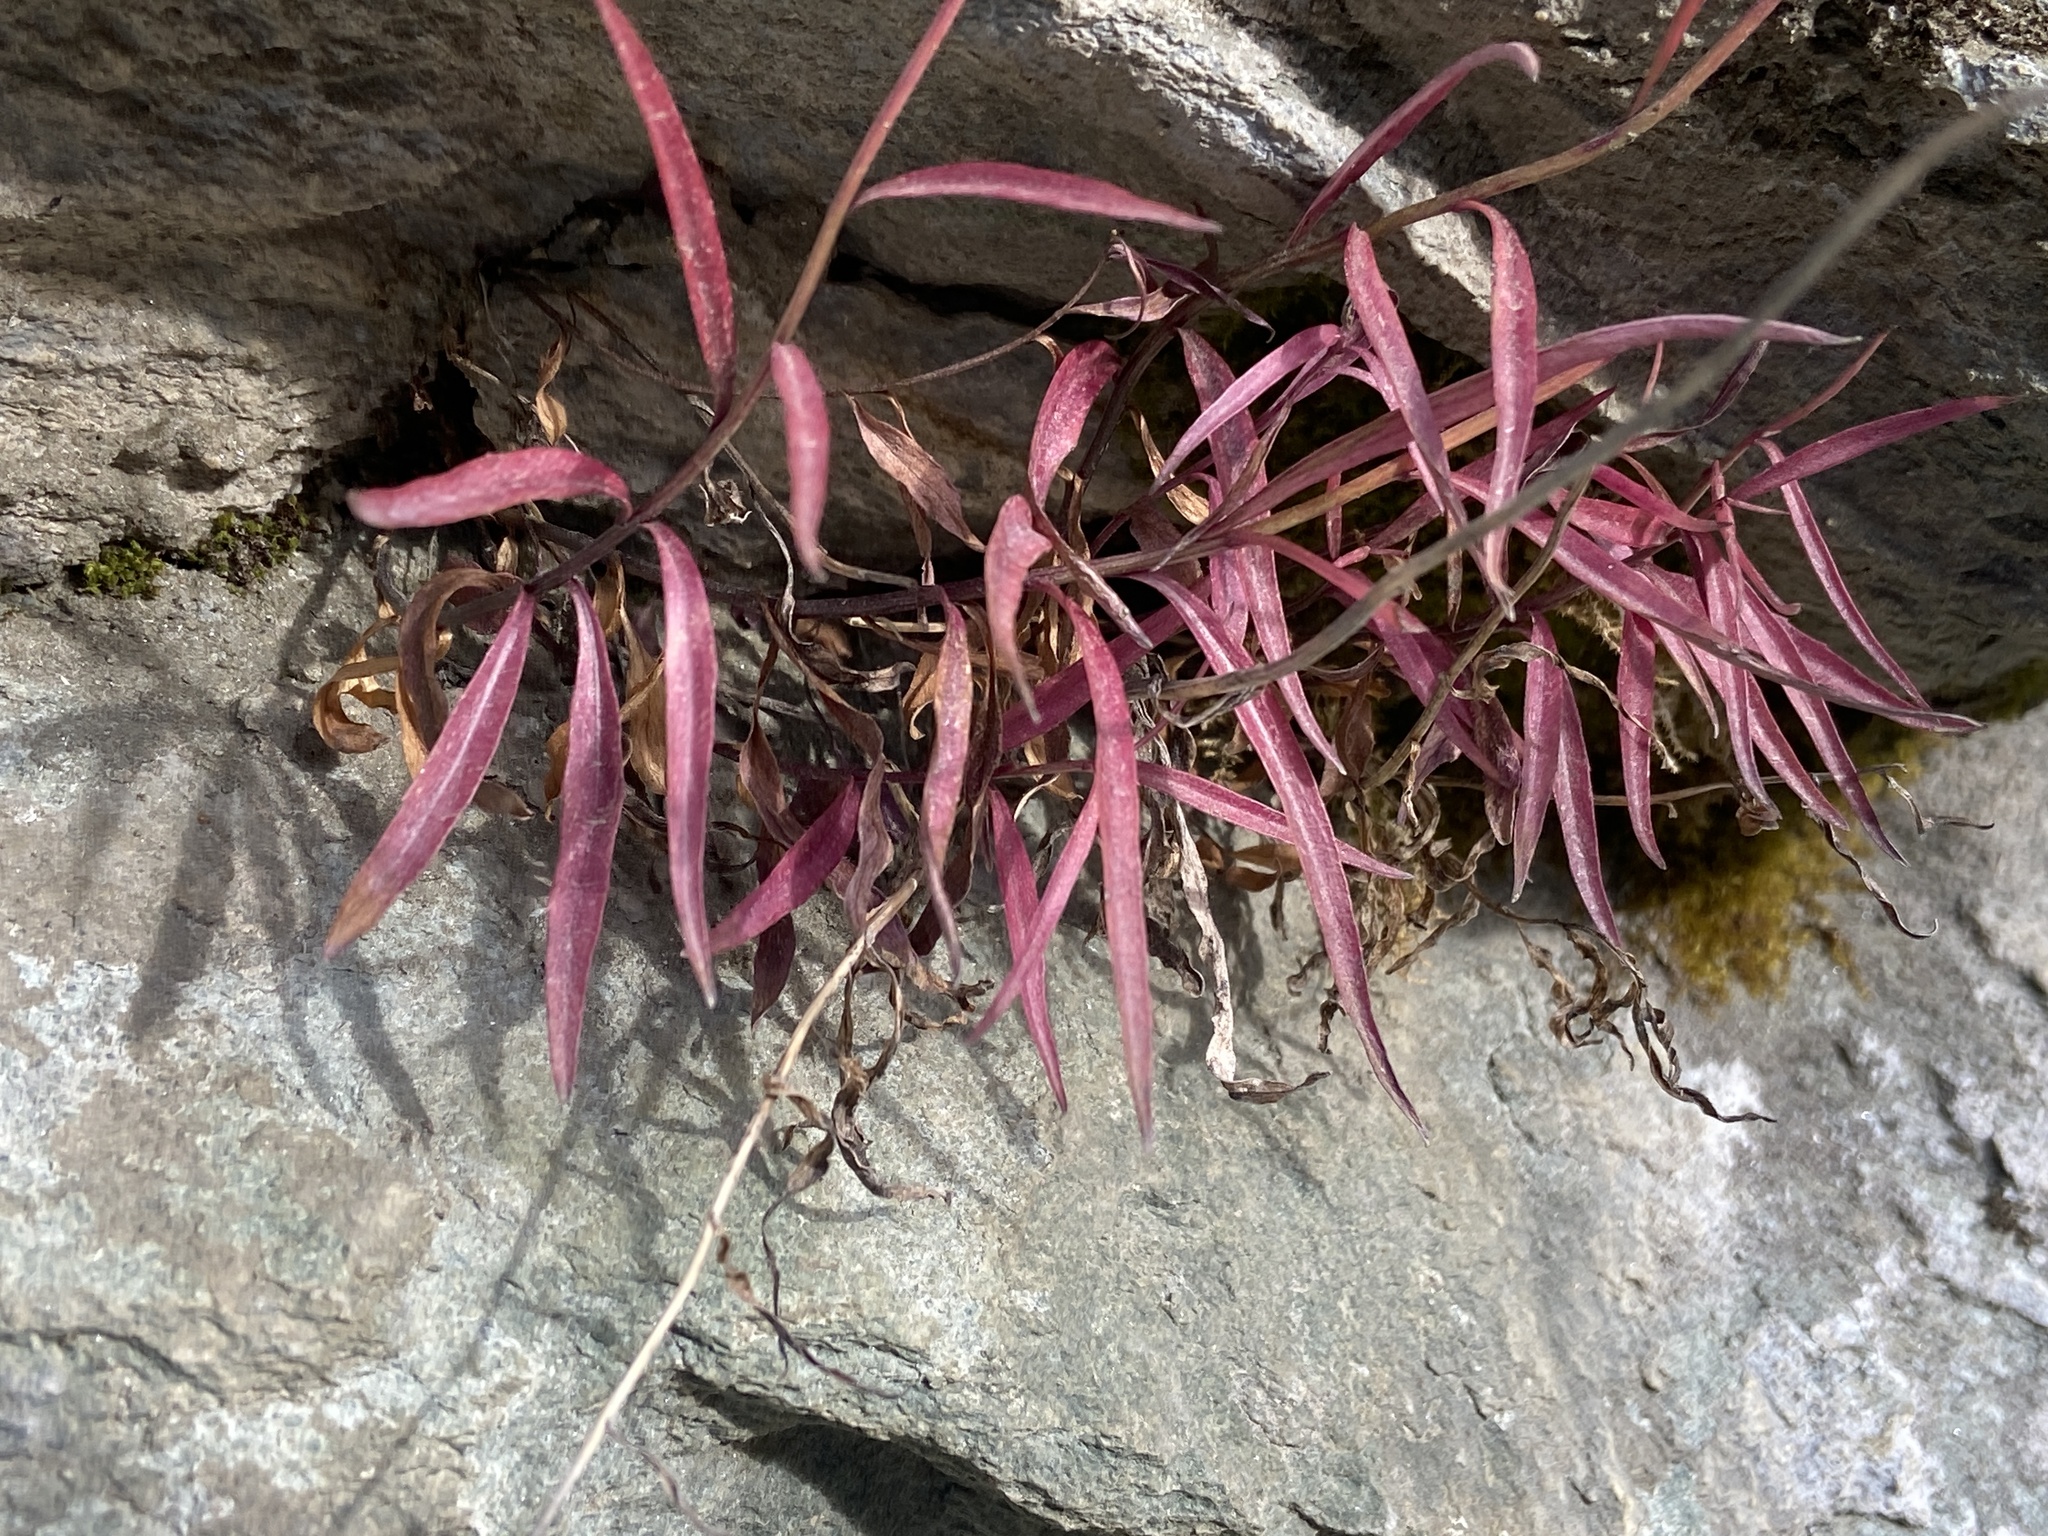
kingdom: Plantae
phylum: Tracheophyta
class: Magnoliopsida
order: Myrtales
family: Onagraceae
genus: Chamaenerion
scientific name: Chamaenerion angustifolium
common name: Fireweed
